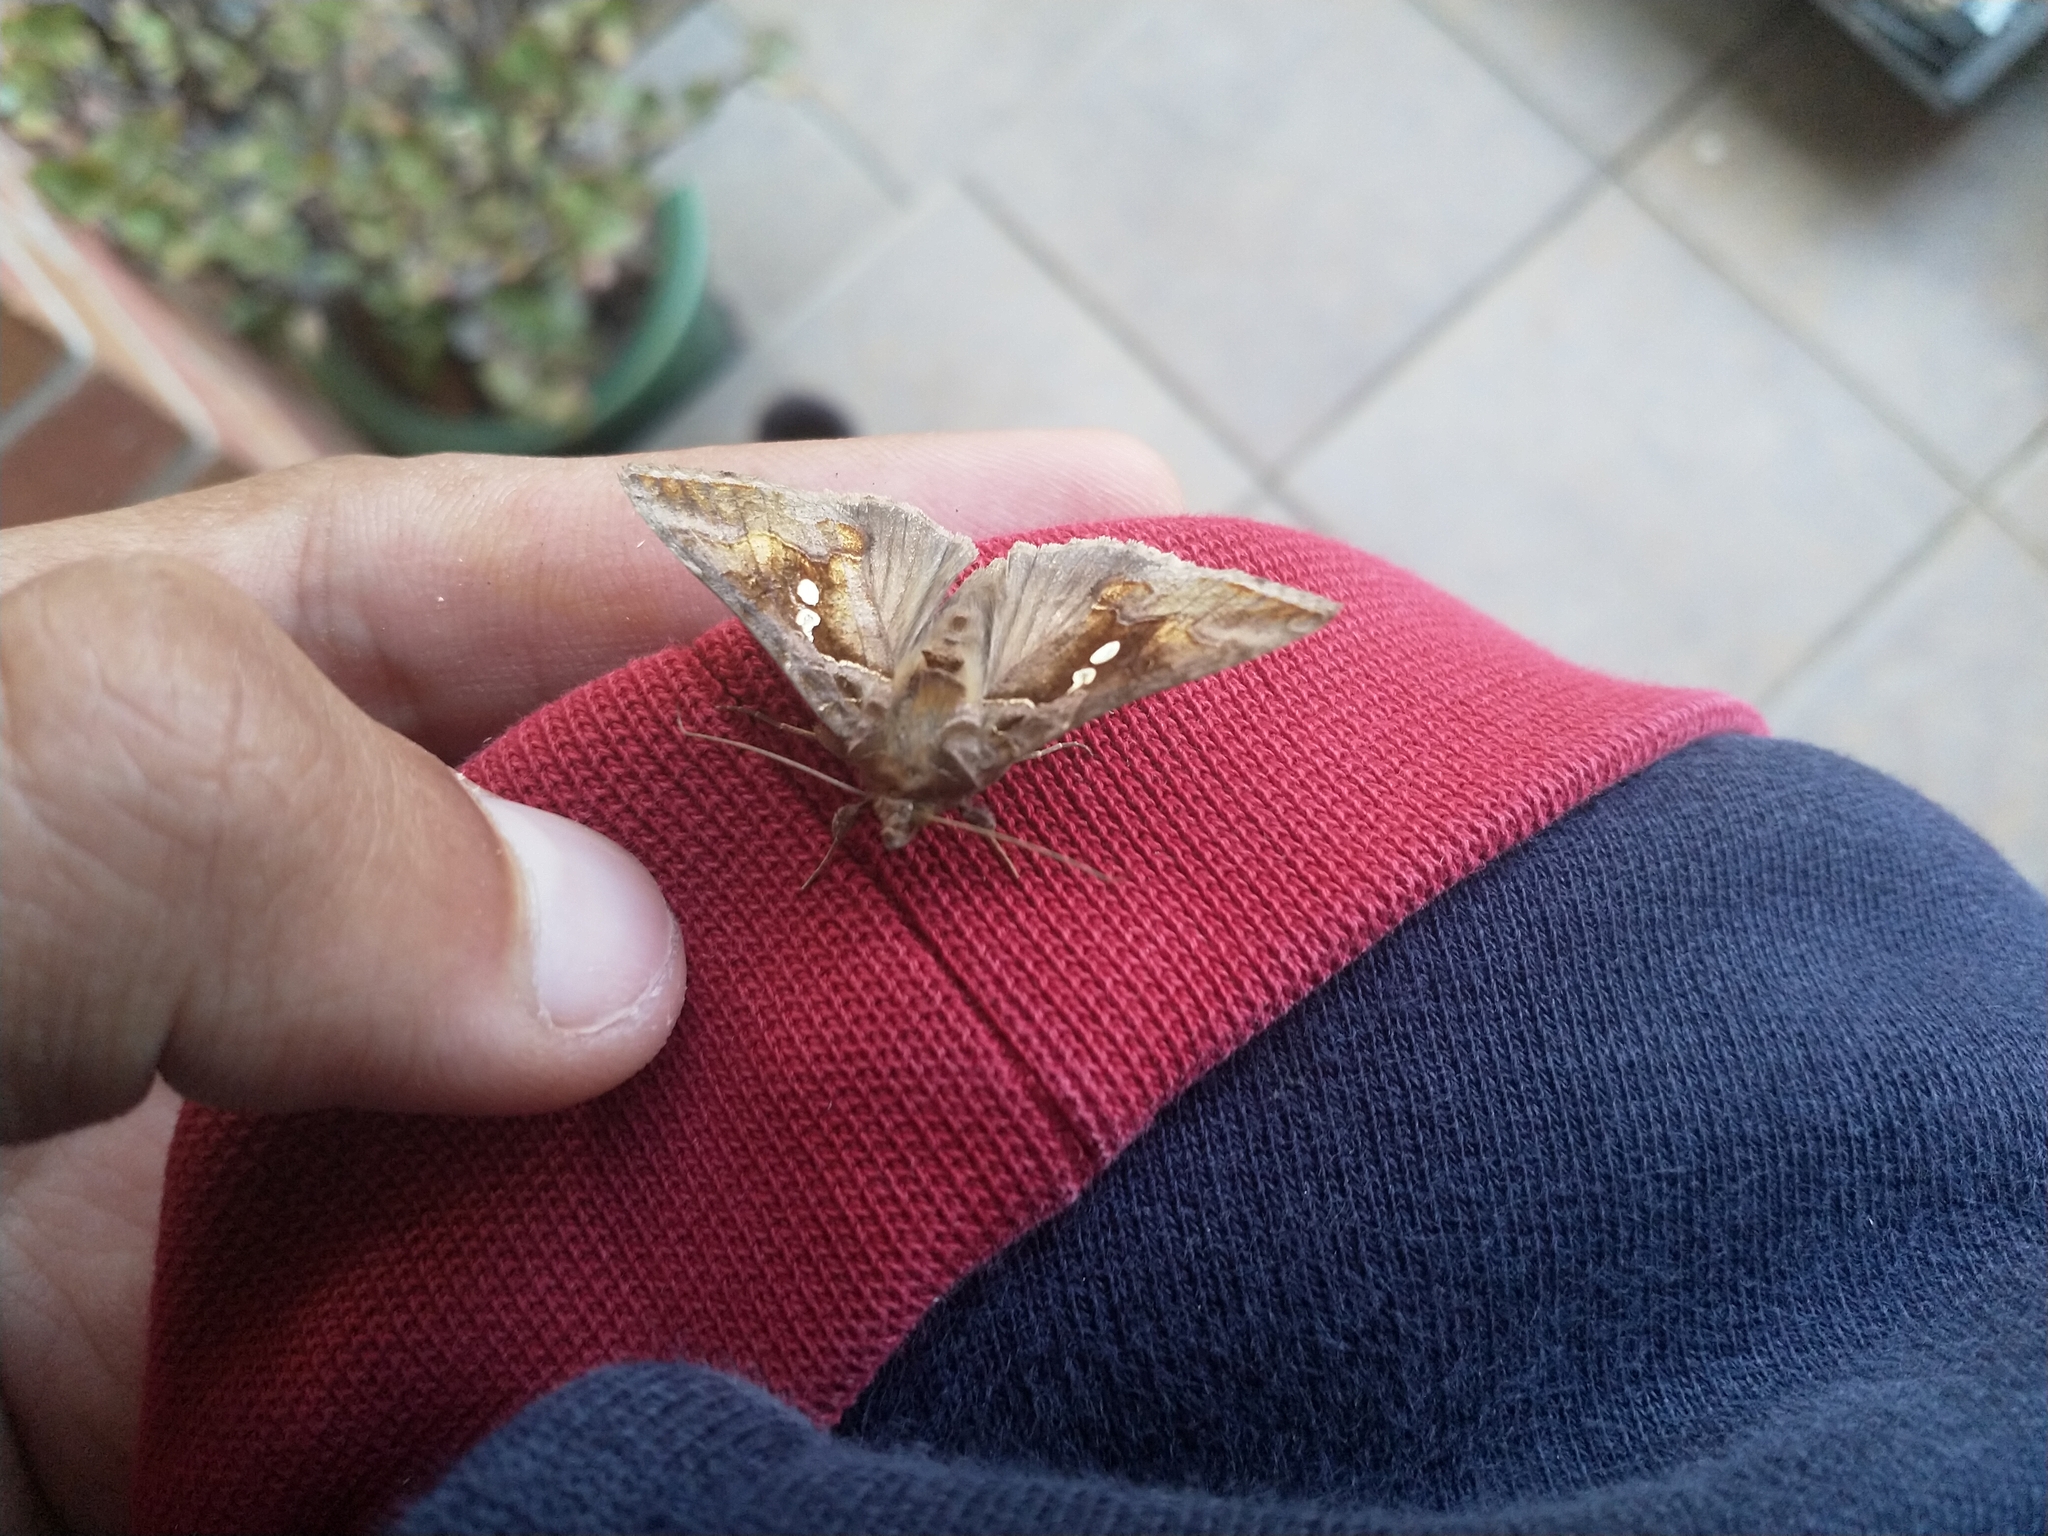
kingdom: Animalia
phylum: Arthropoda
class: Insecta
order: Lepidoptera
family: Noctuidae
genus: Chrysodeixis
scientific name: Chrysodeixis eriosoma
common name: Green garden looper
